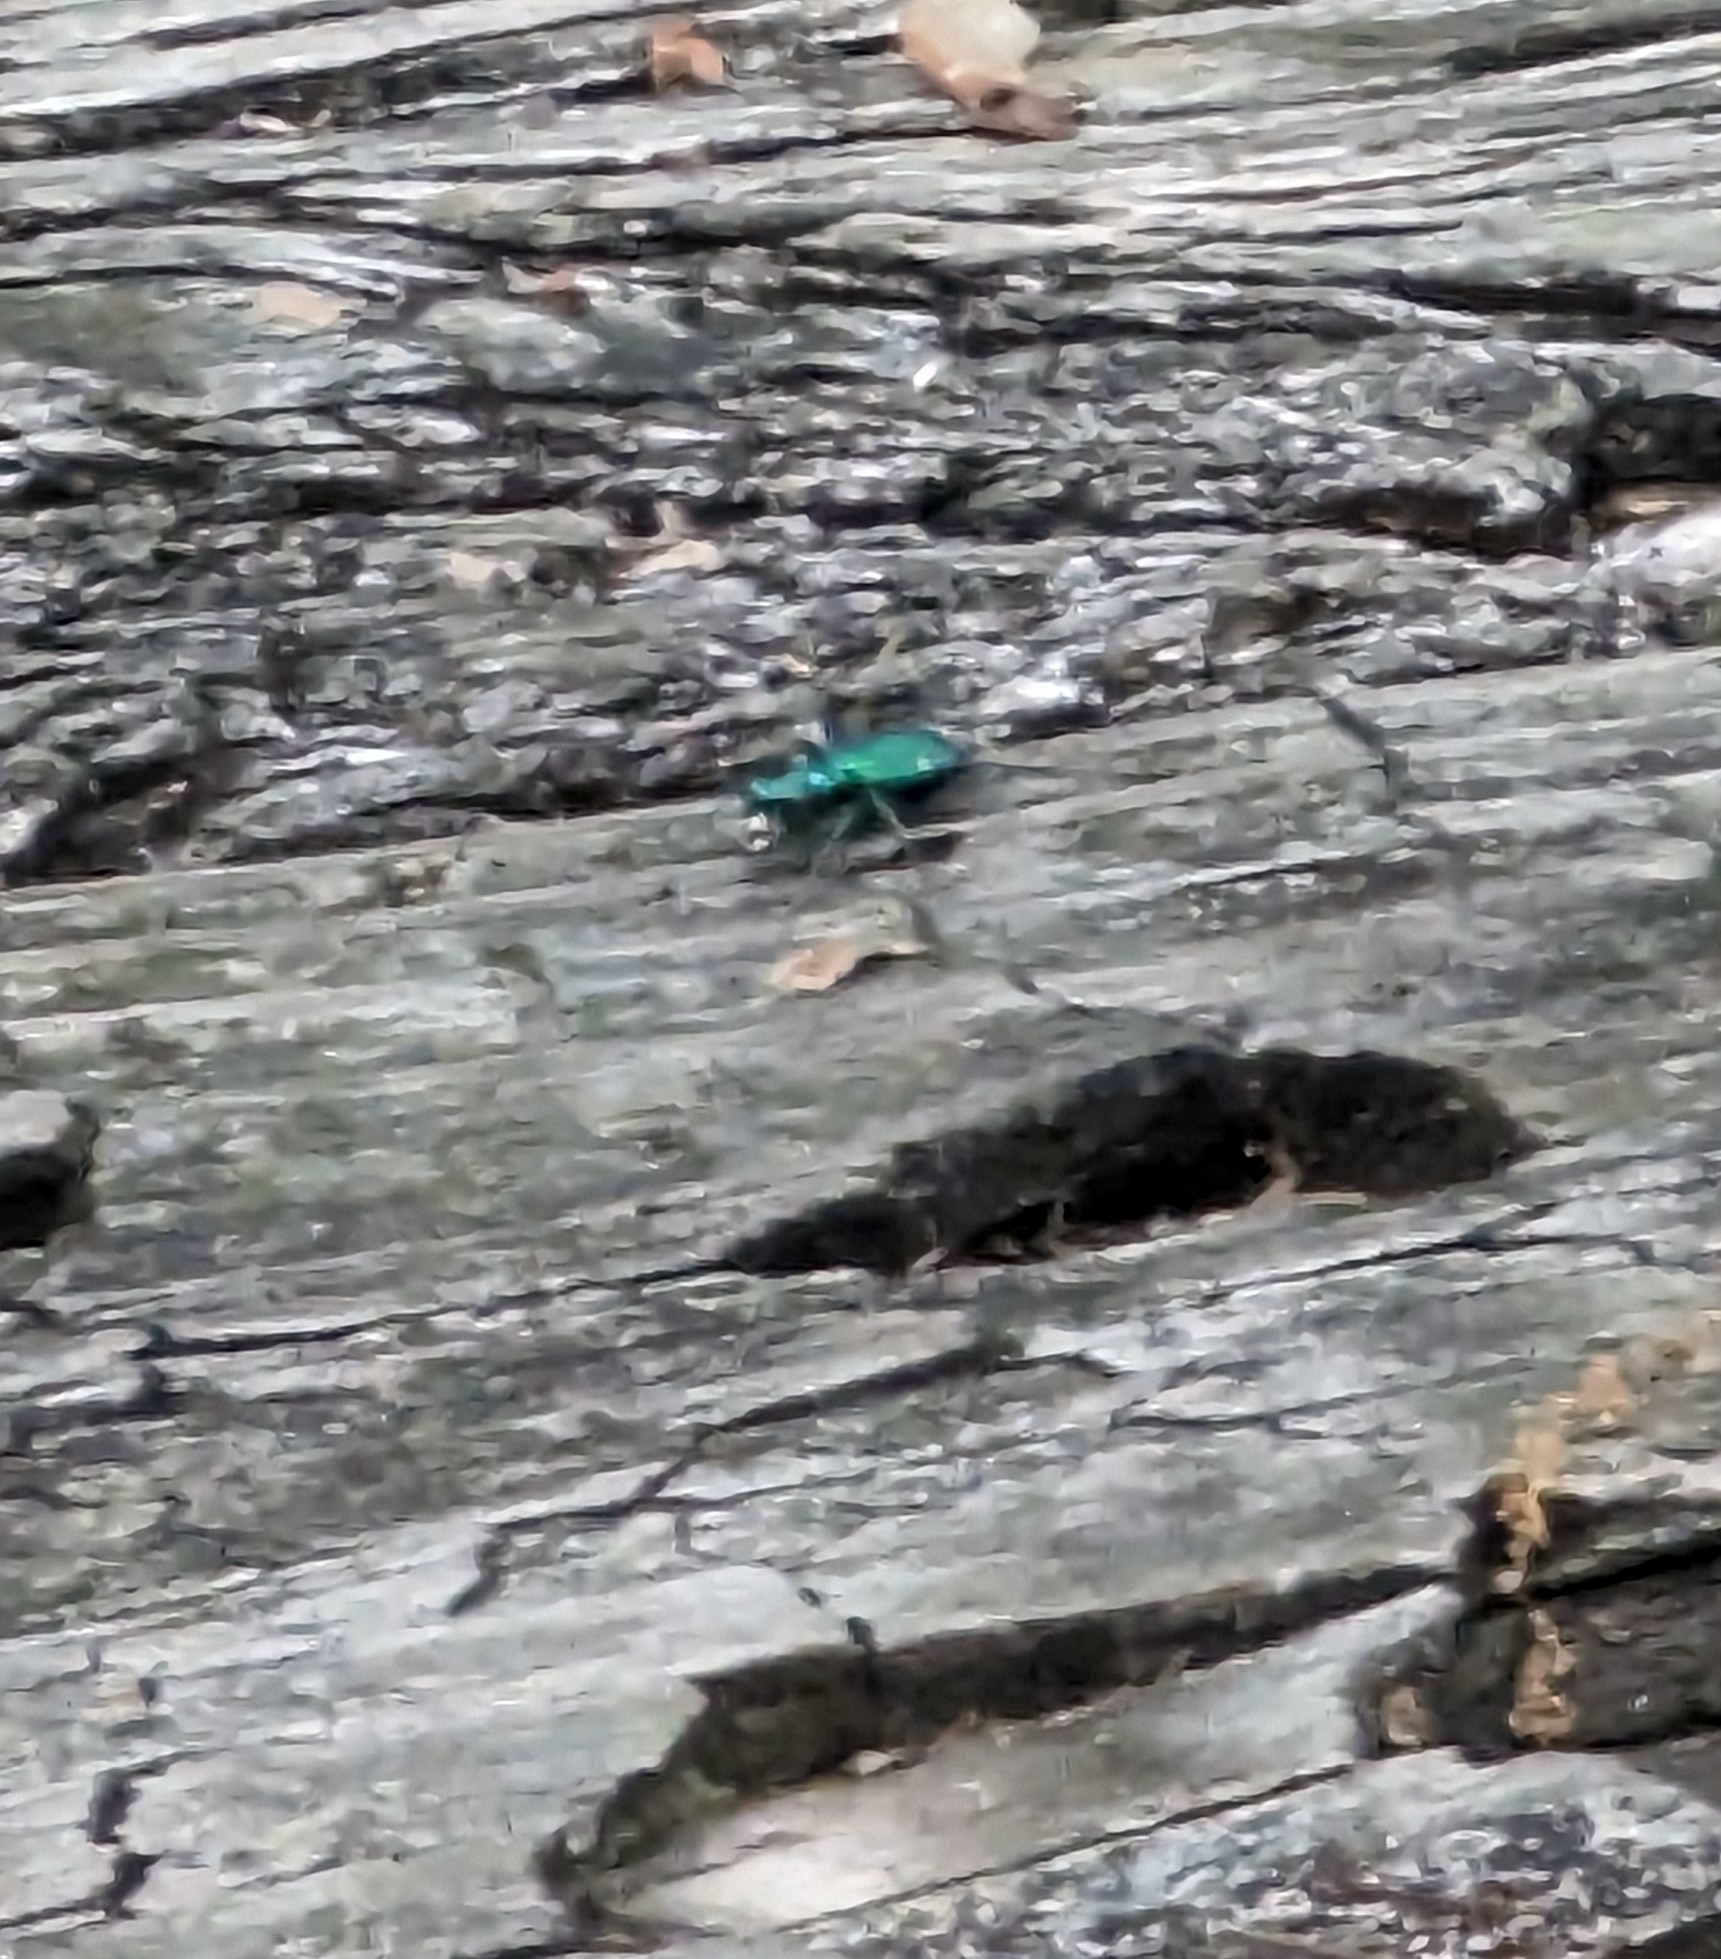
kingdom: Animalia
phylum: Arthropoda
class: Insecta
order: Coleoptera
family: Carabidae
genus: Cicindela
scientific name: Cicindela sexguttata
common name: Six-spotted tiger beetle
